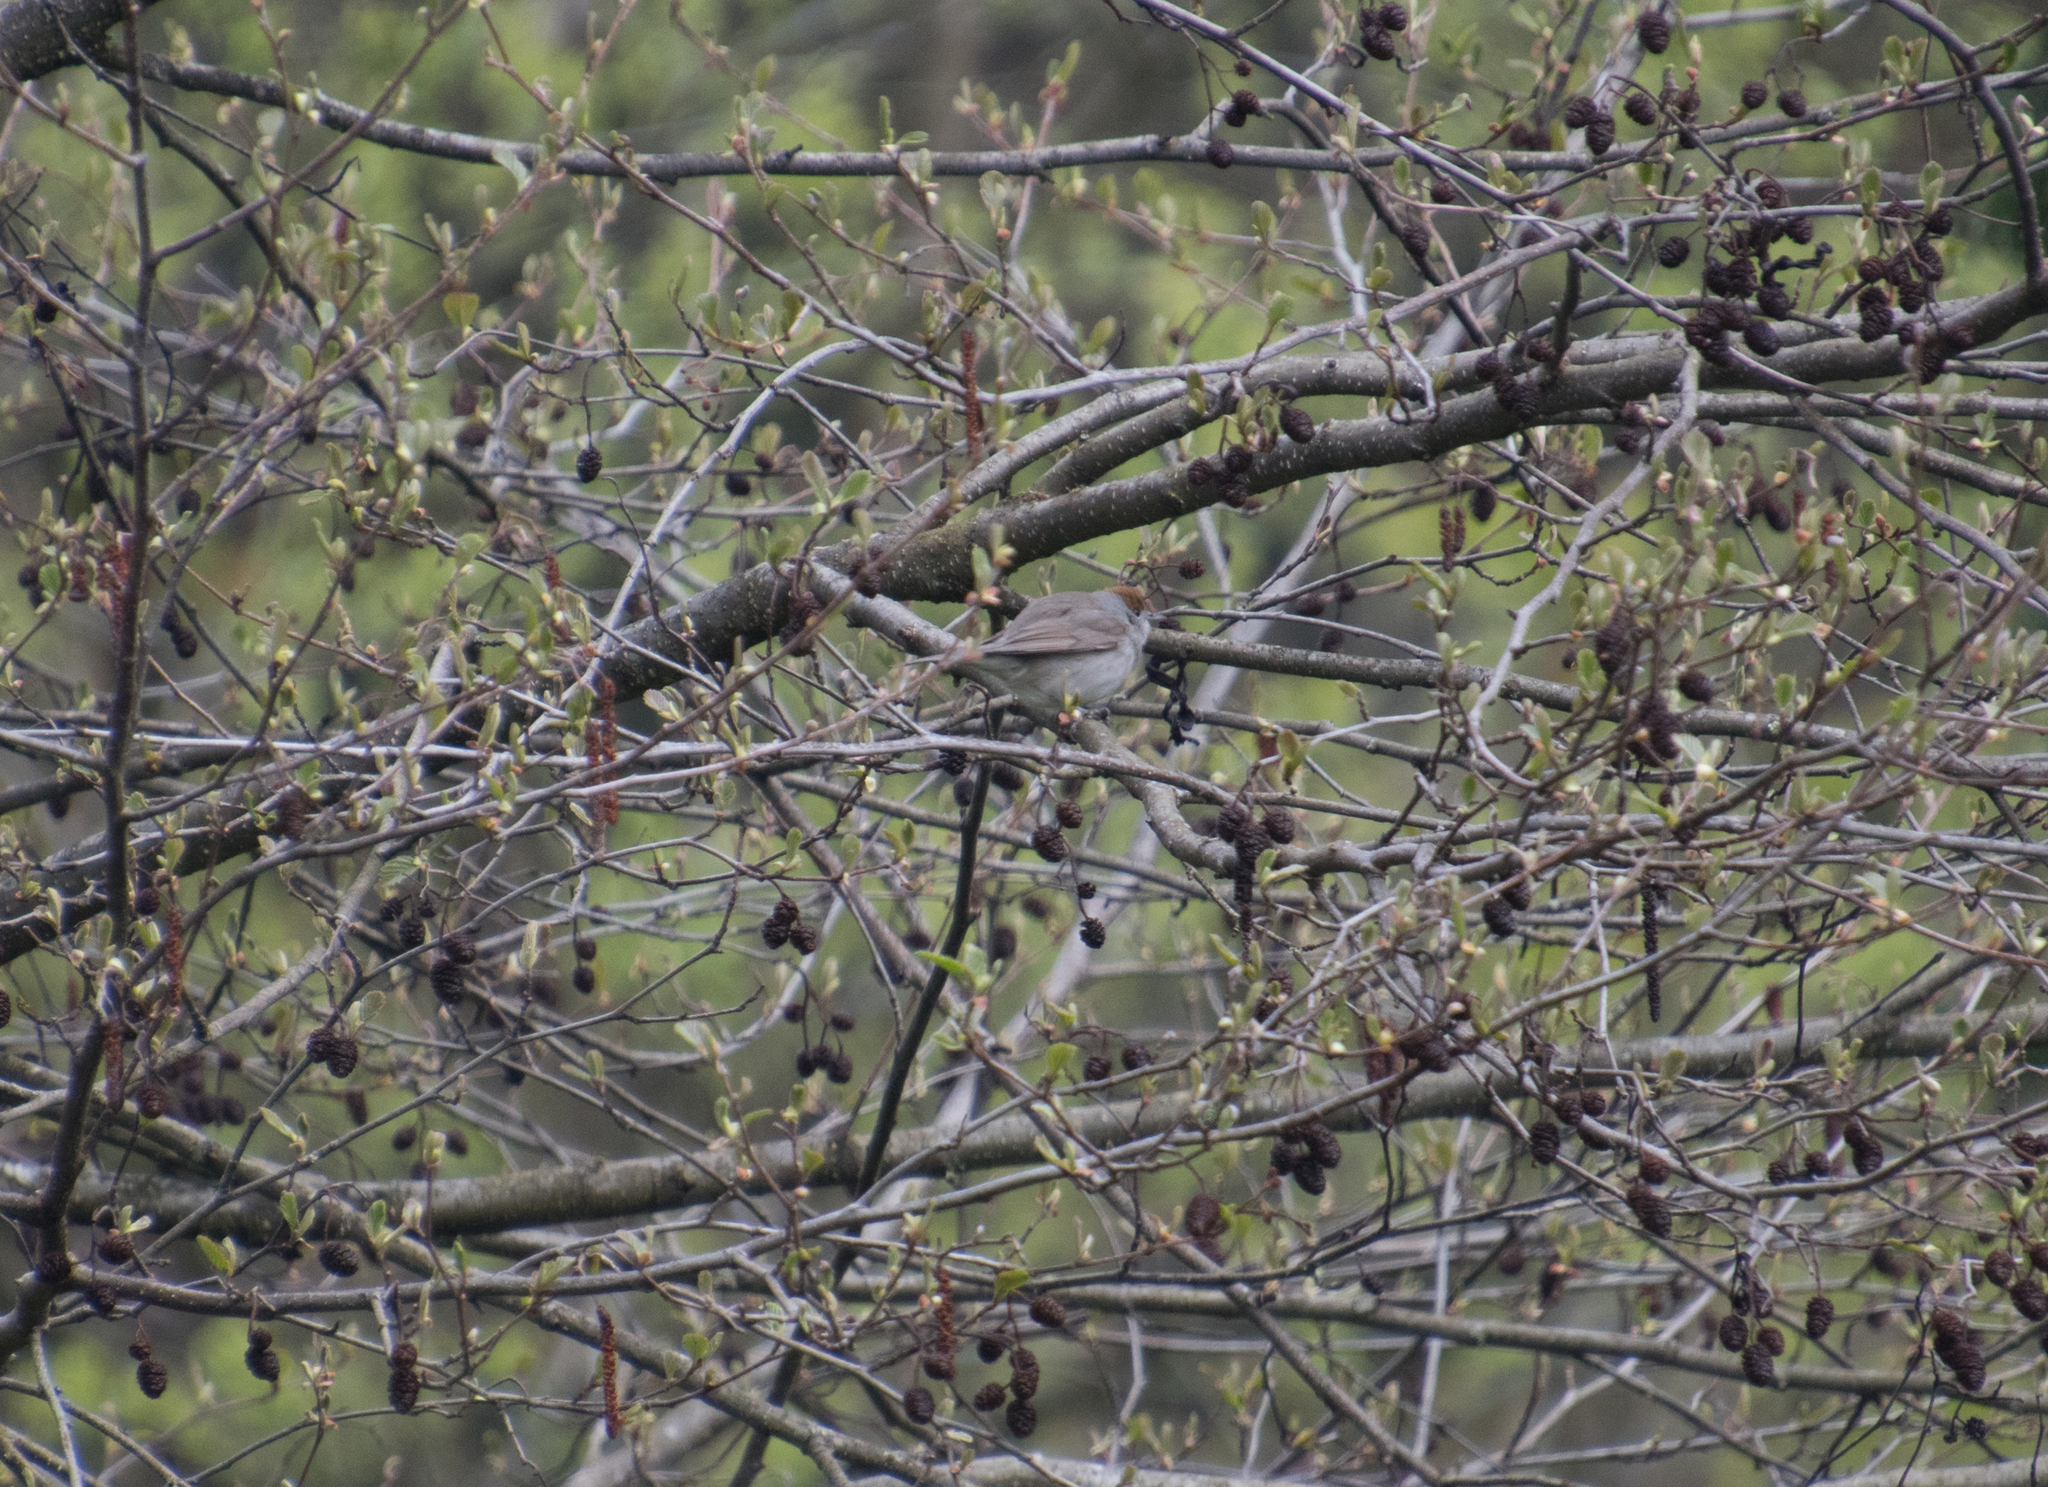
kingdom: Animalia
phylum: Chordata
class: Aves
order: Passeriformes
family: Sylviidae
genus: Sylvia
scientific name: Sylvia atricapilla
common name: Eurasian blackcap
